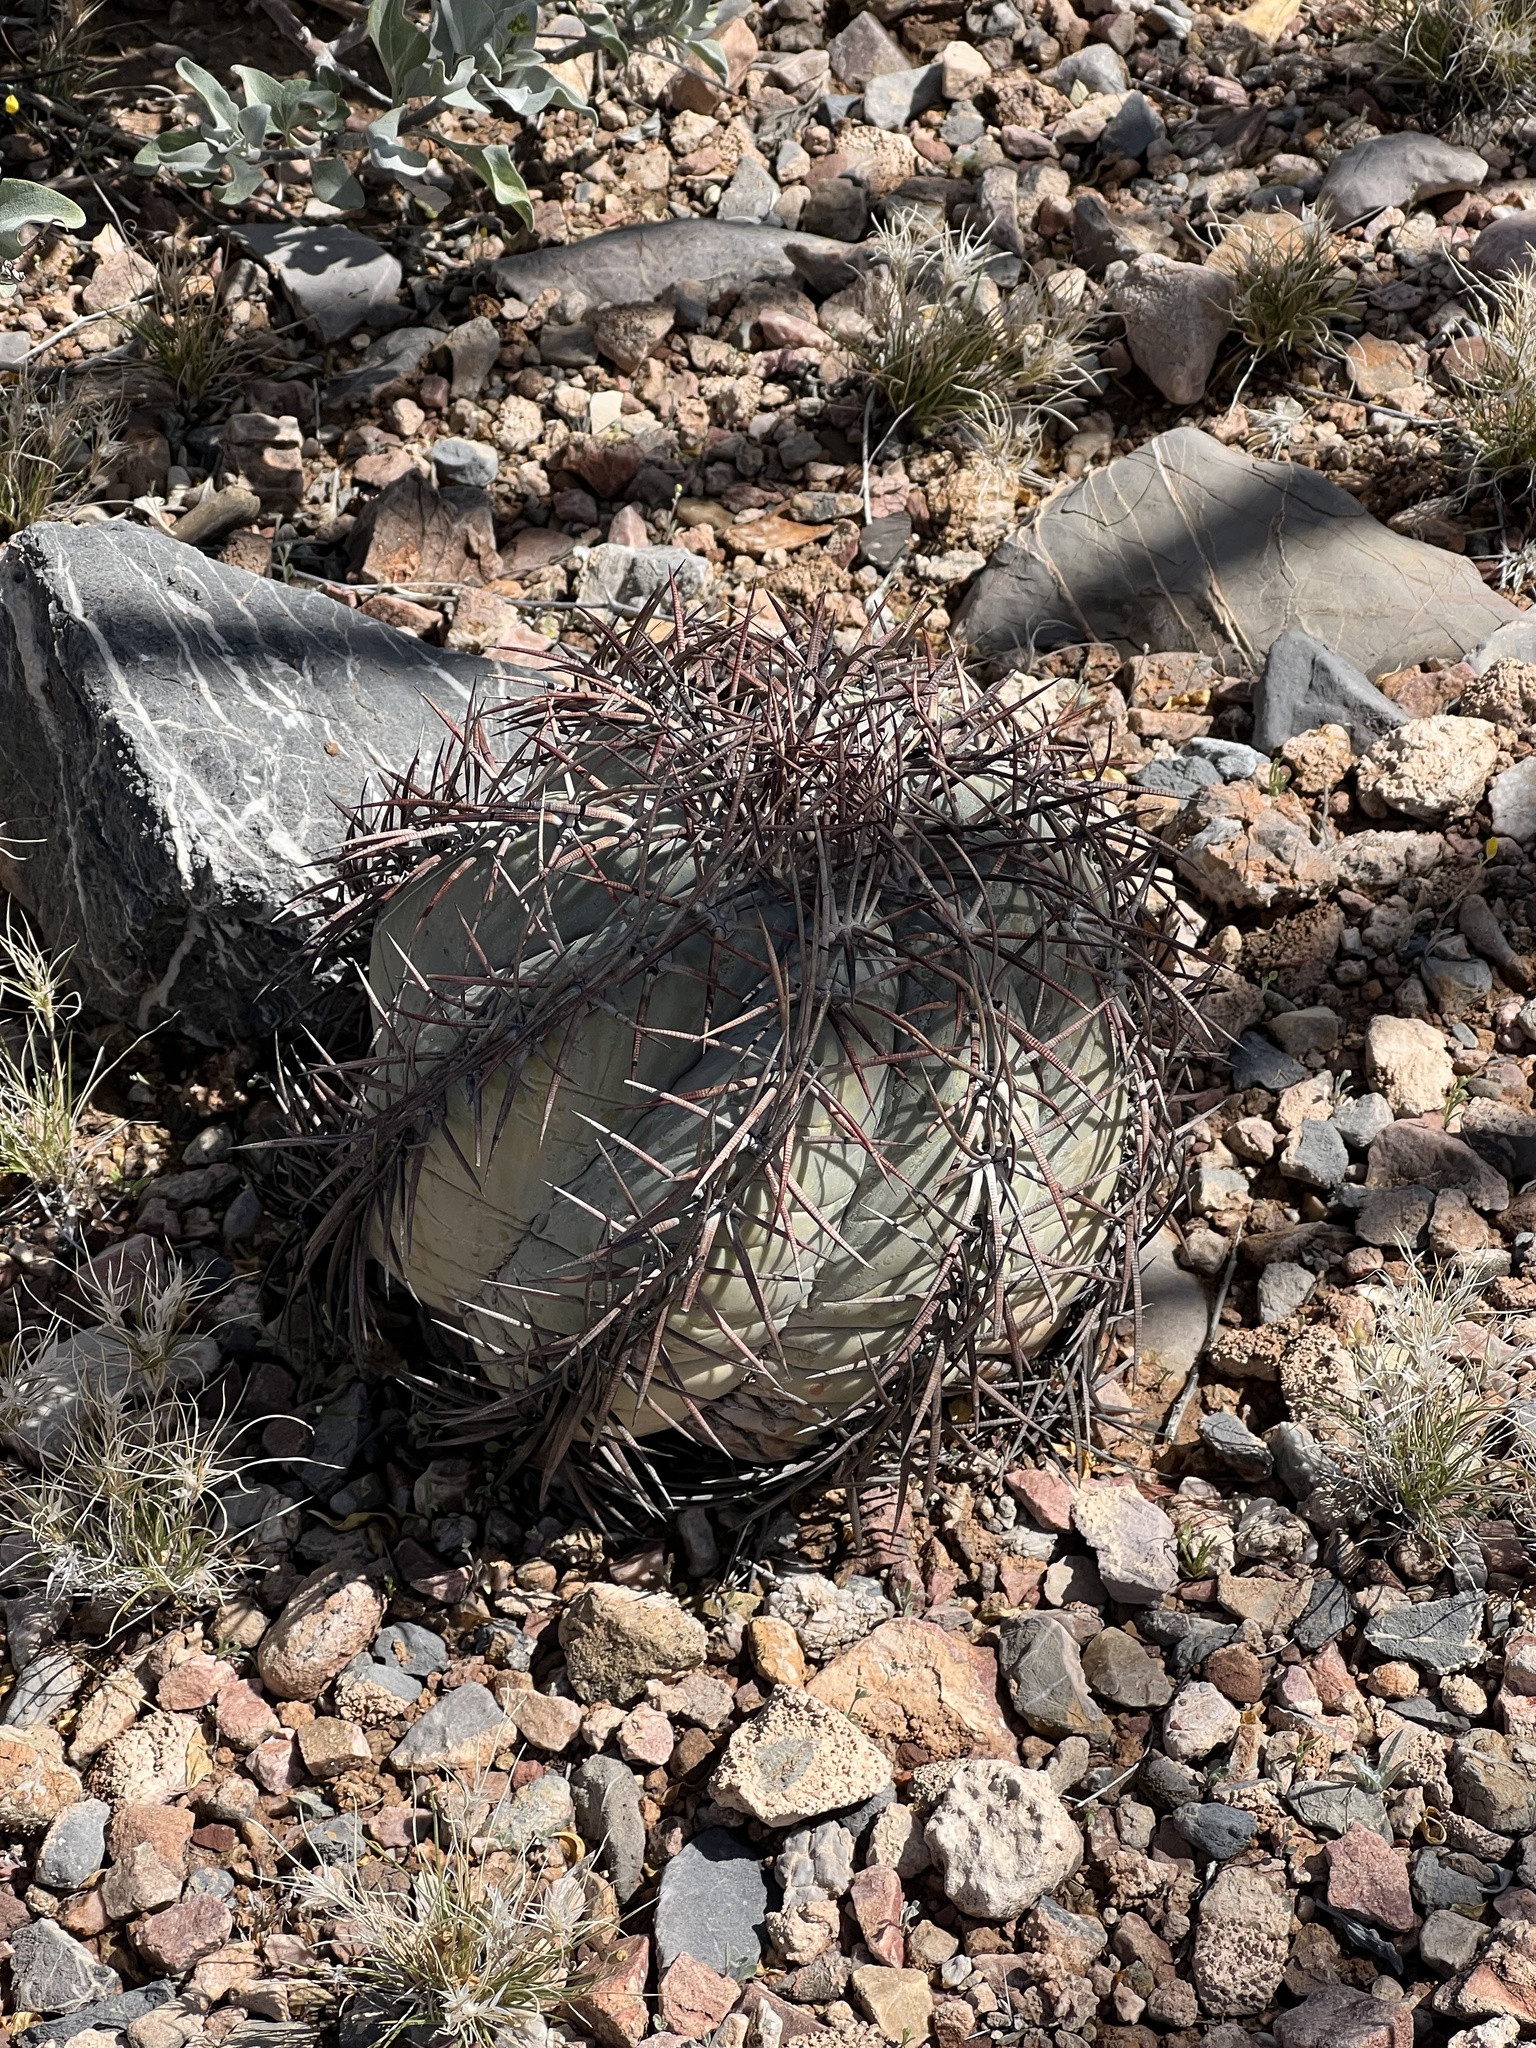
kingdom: Plantae
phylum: Tracheophyta
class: Magnoliopsida
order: Caryophyllales
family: Cactaceae
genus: Echinocactus
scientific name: Echinocactus horizonthalonius
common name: Devilshead
